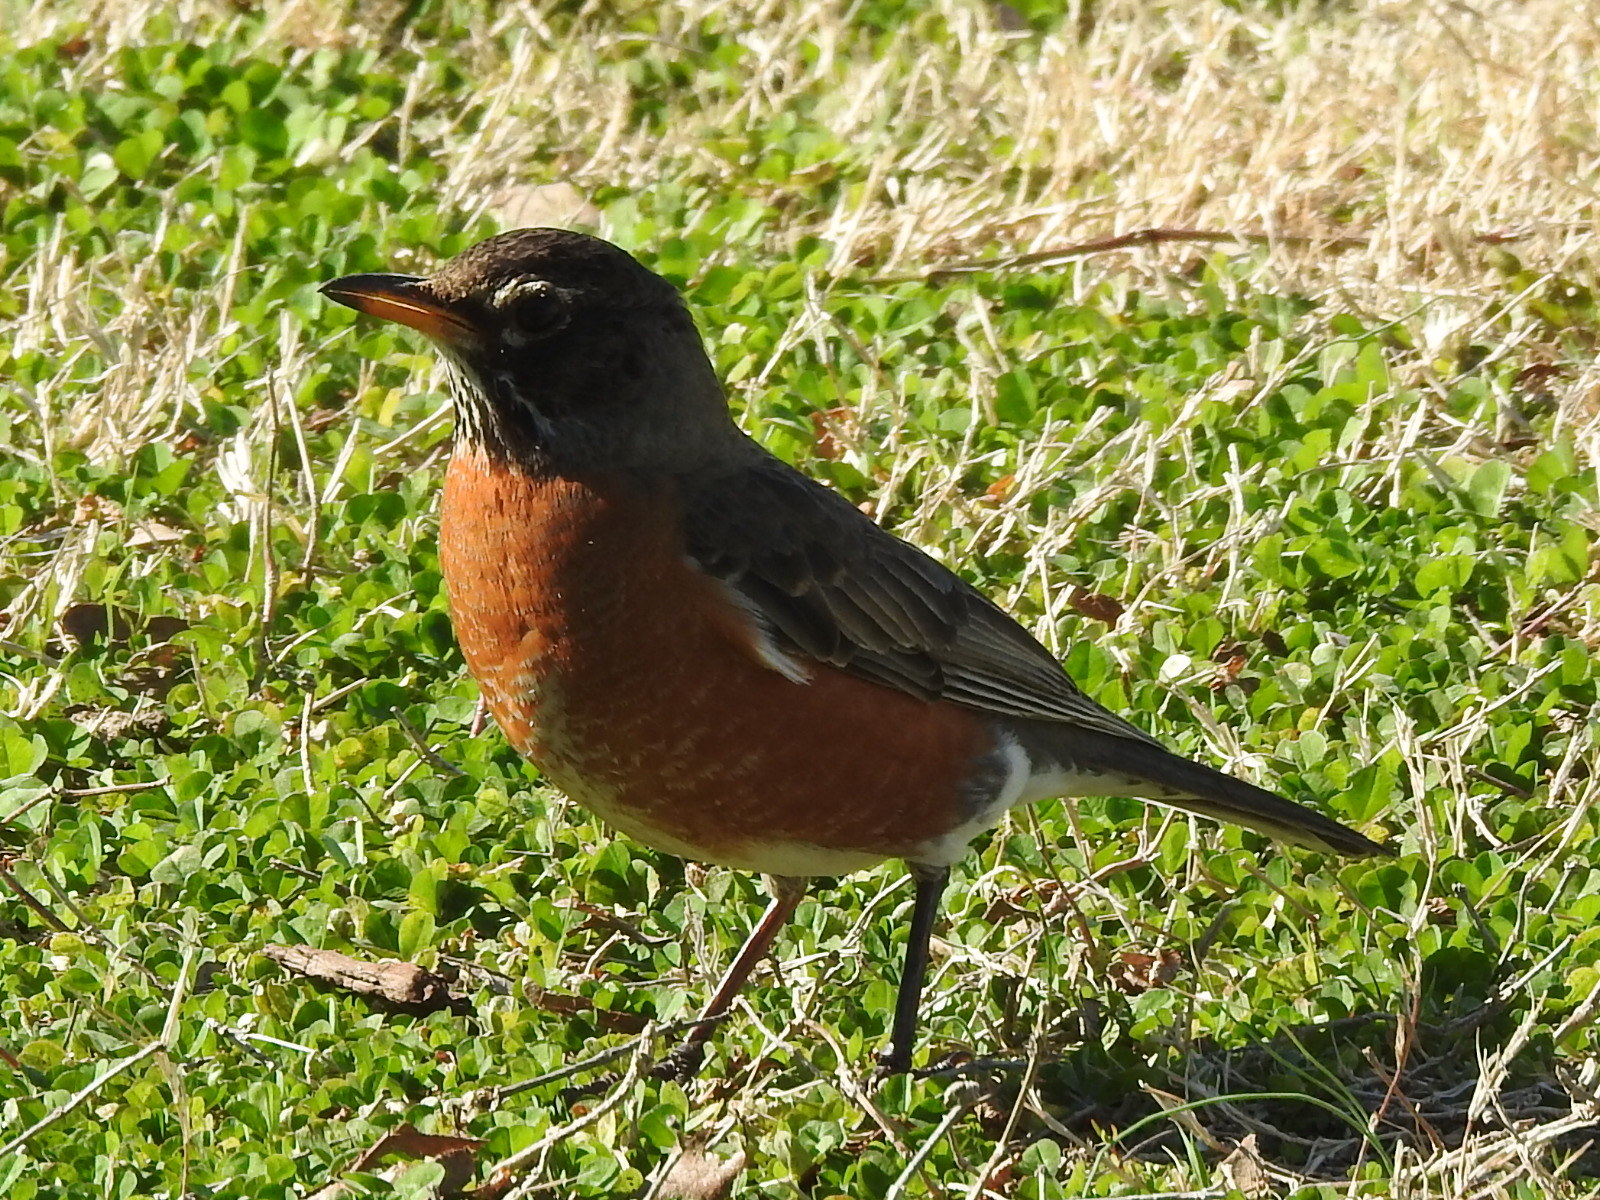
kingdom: Animalia
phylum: Chordata
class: Aves
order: Passeriformes
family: Turdidae
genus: Turdus
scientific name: Turdus migratorius
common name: American robin
